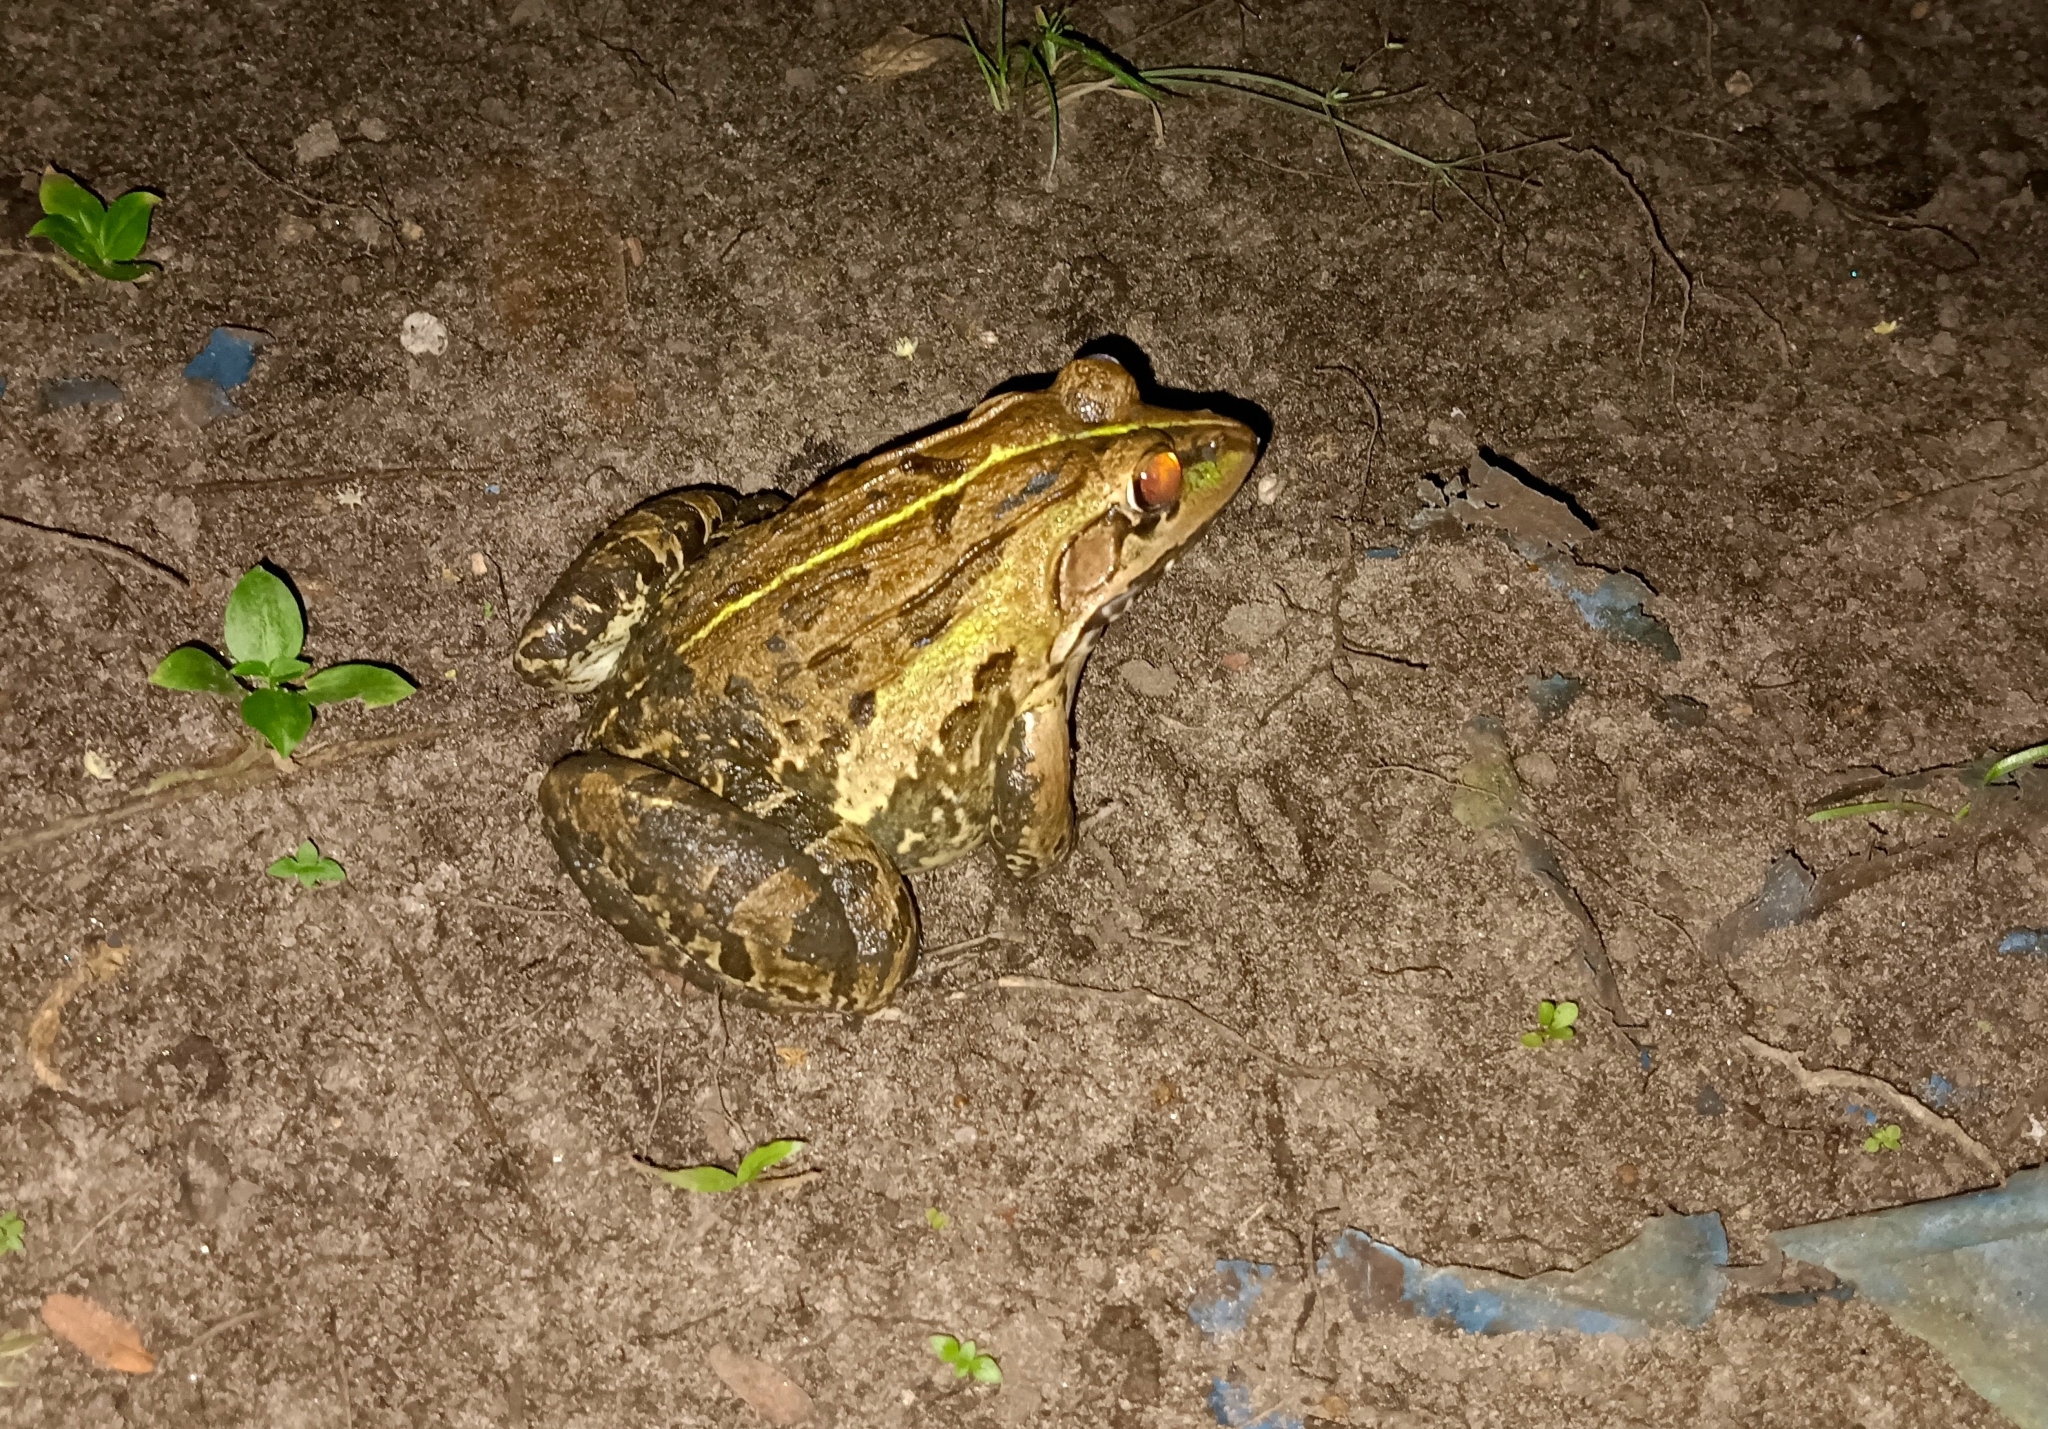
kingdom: Animalia
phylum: Chordata
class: Amphibia
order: Anura
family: Dicroglossidae
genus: Hoplobatrachus
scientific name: Hoplobatrachus tigerinus
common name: Indian bullfrog
